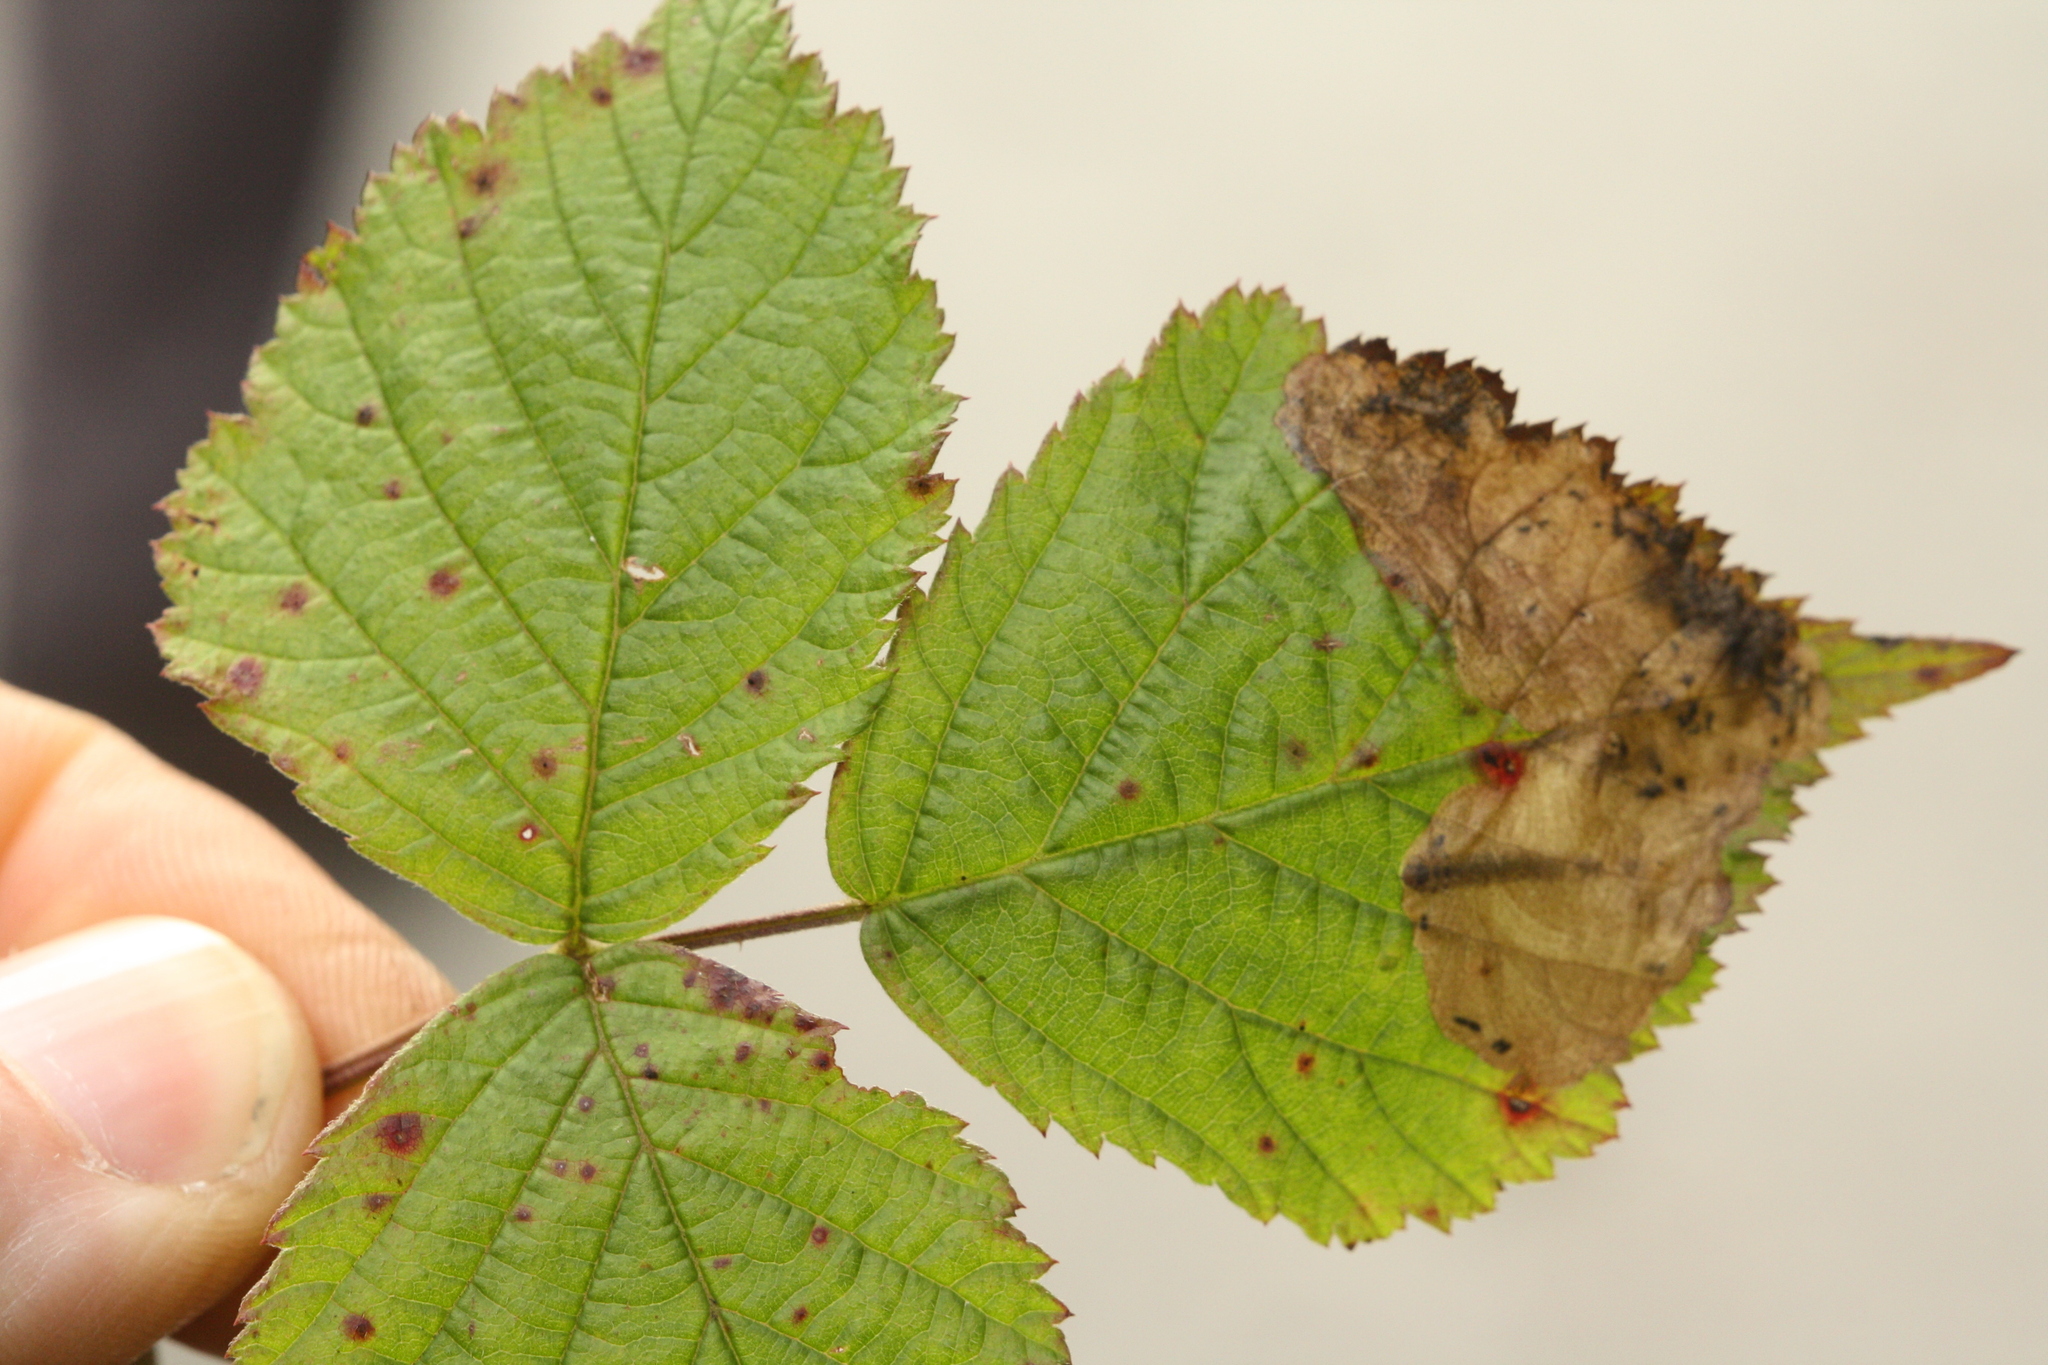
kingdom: Animalia
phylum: Arthropoda
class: Insecta
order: Hymenoptera
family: Tenthredinidae
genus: Metallus
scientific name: Metallus pumilus
